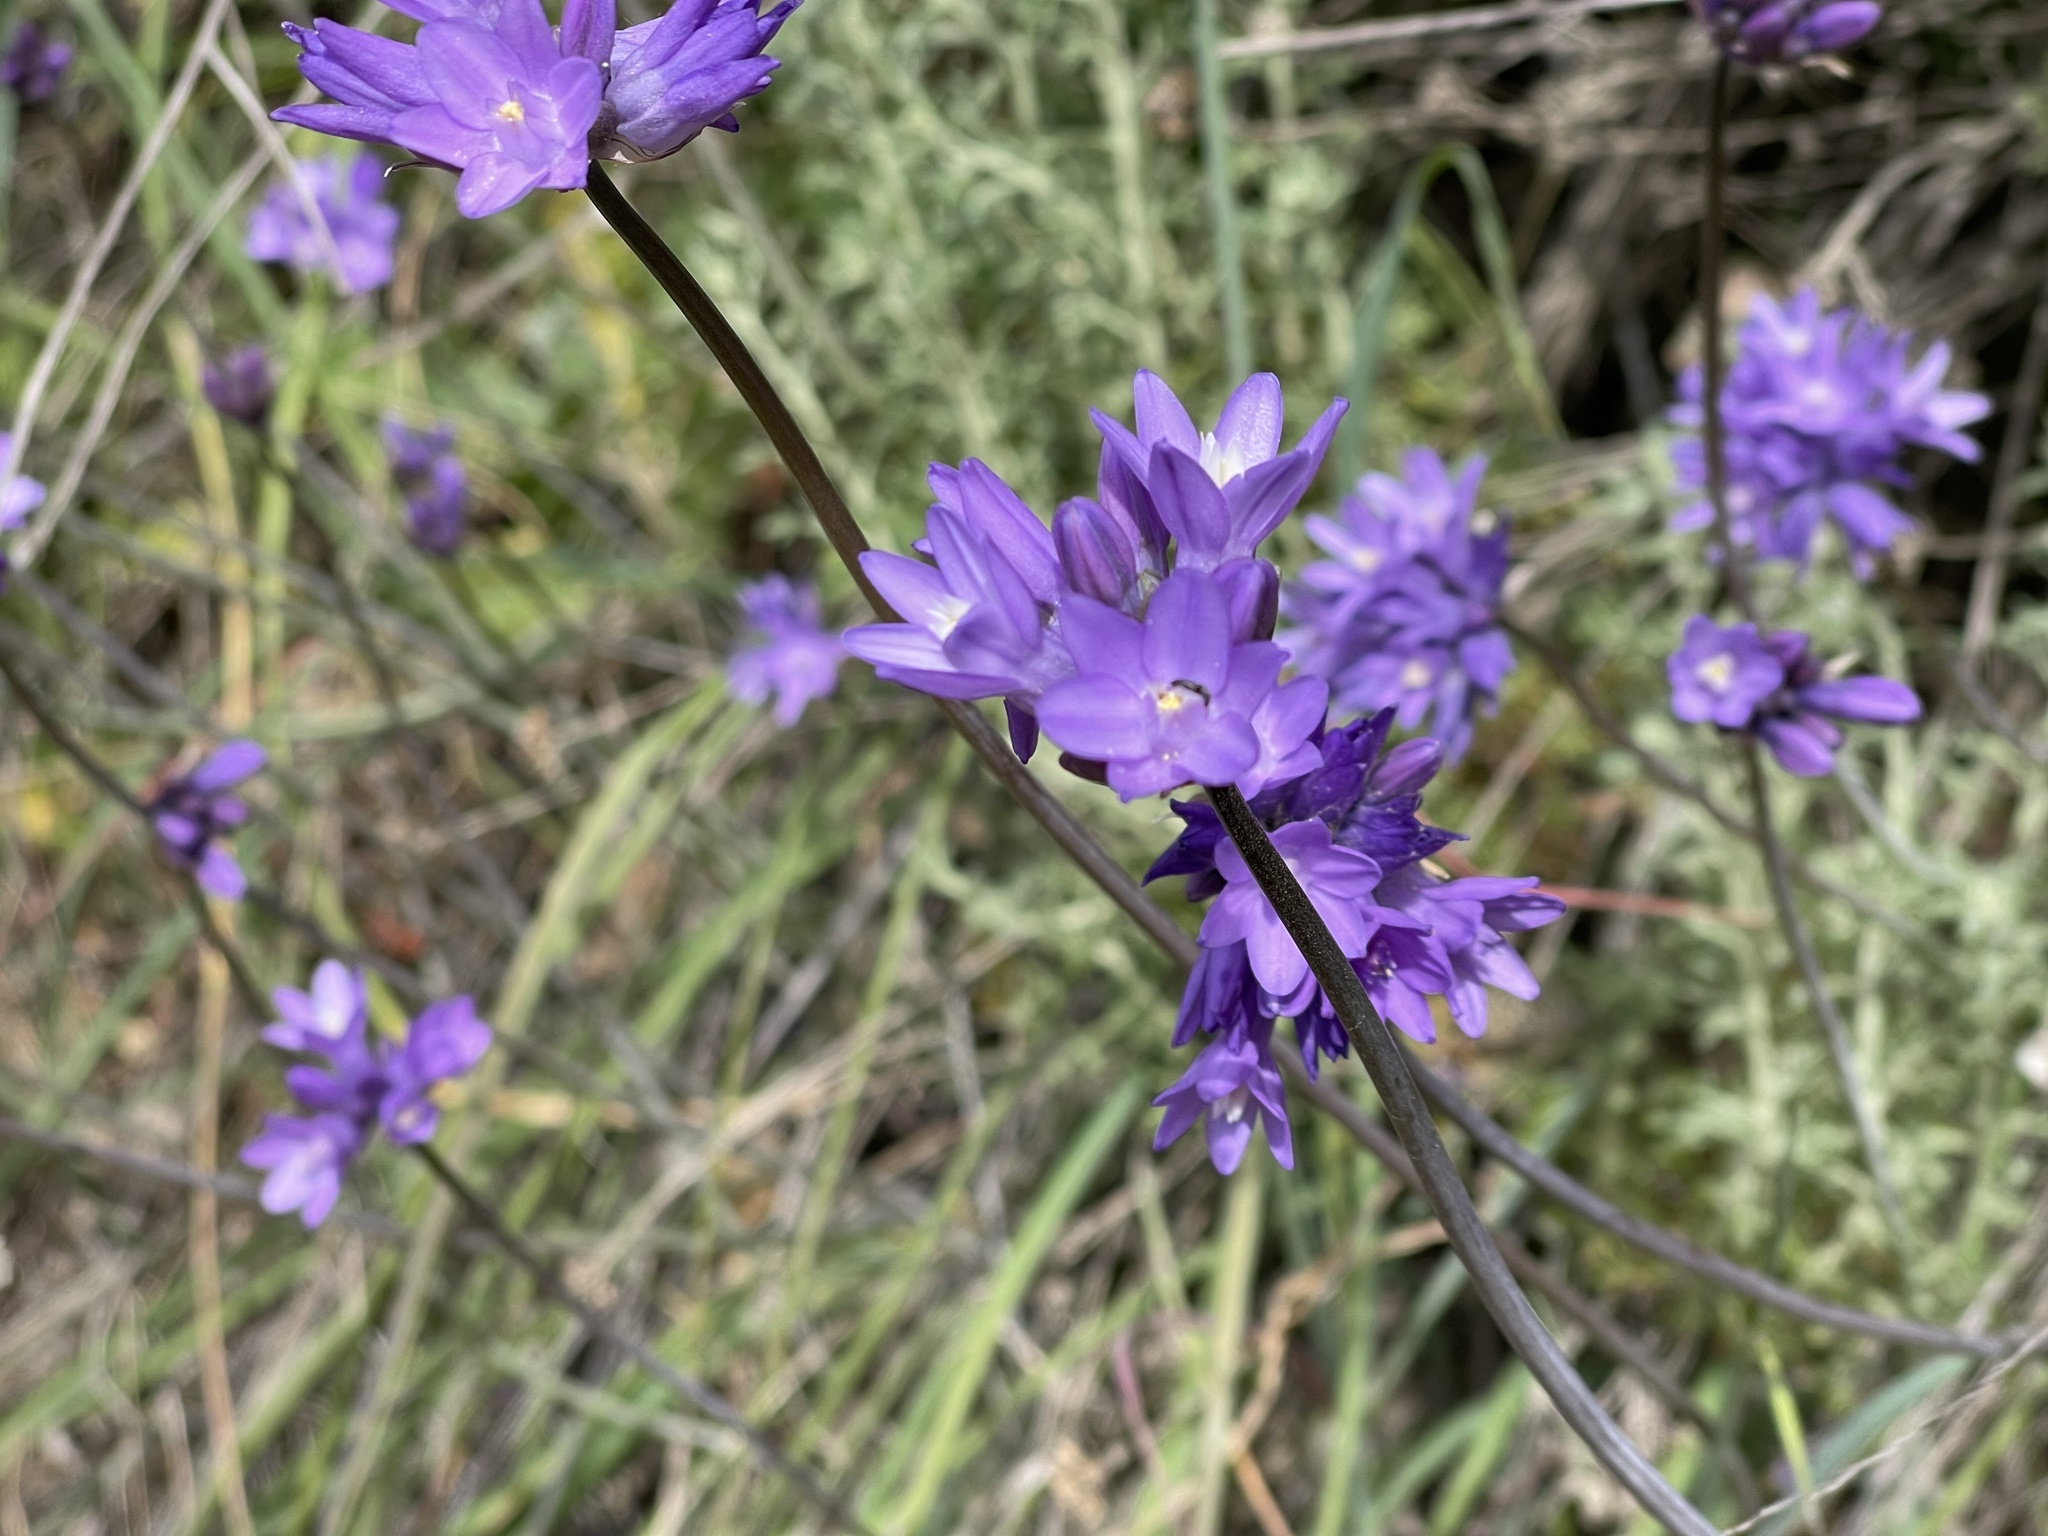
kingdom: Plantae
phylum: Tracheophyta
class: Liliopsida
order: Asparagales
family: Asparagaceae
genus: Dipterostemon
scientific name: Dipterostemon capitatus
